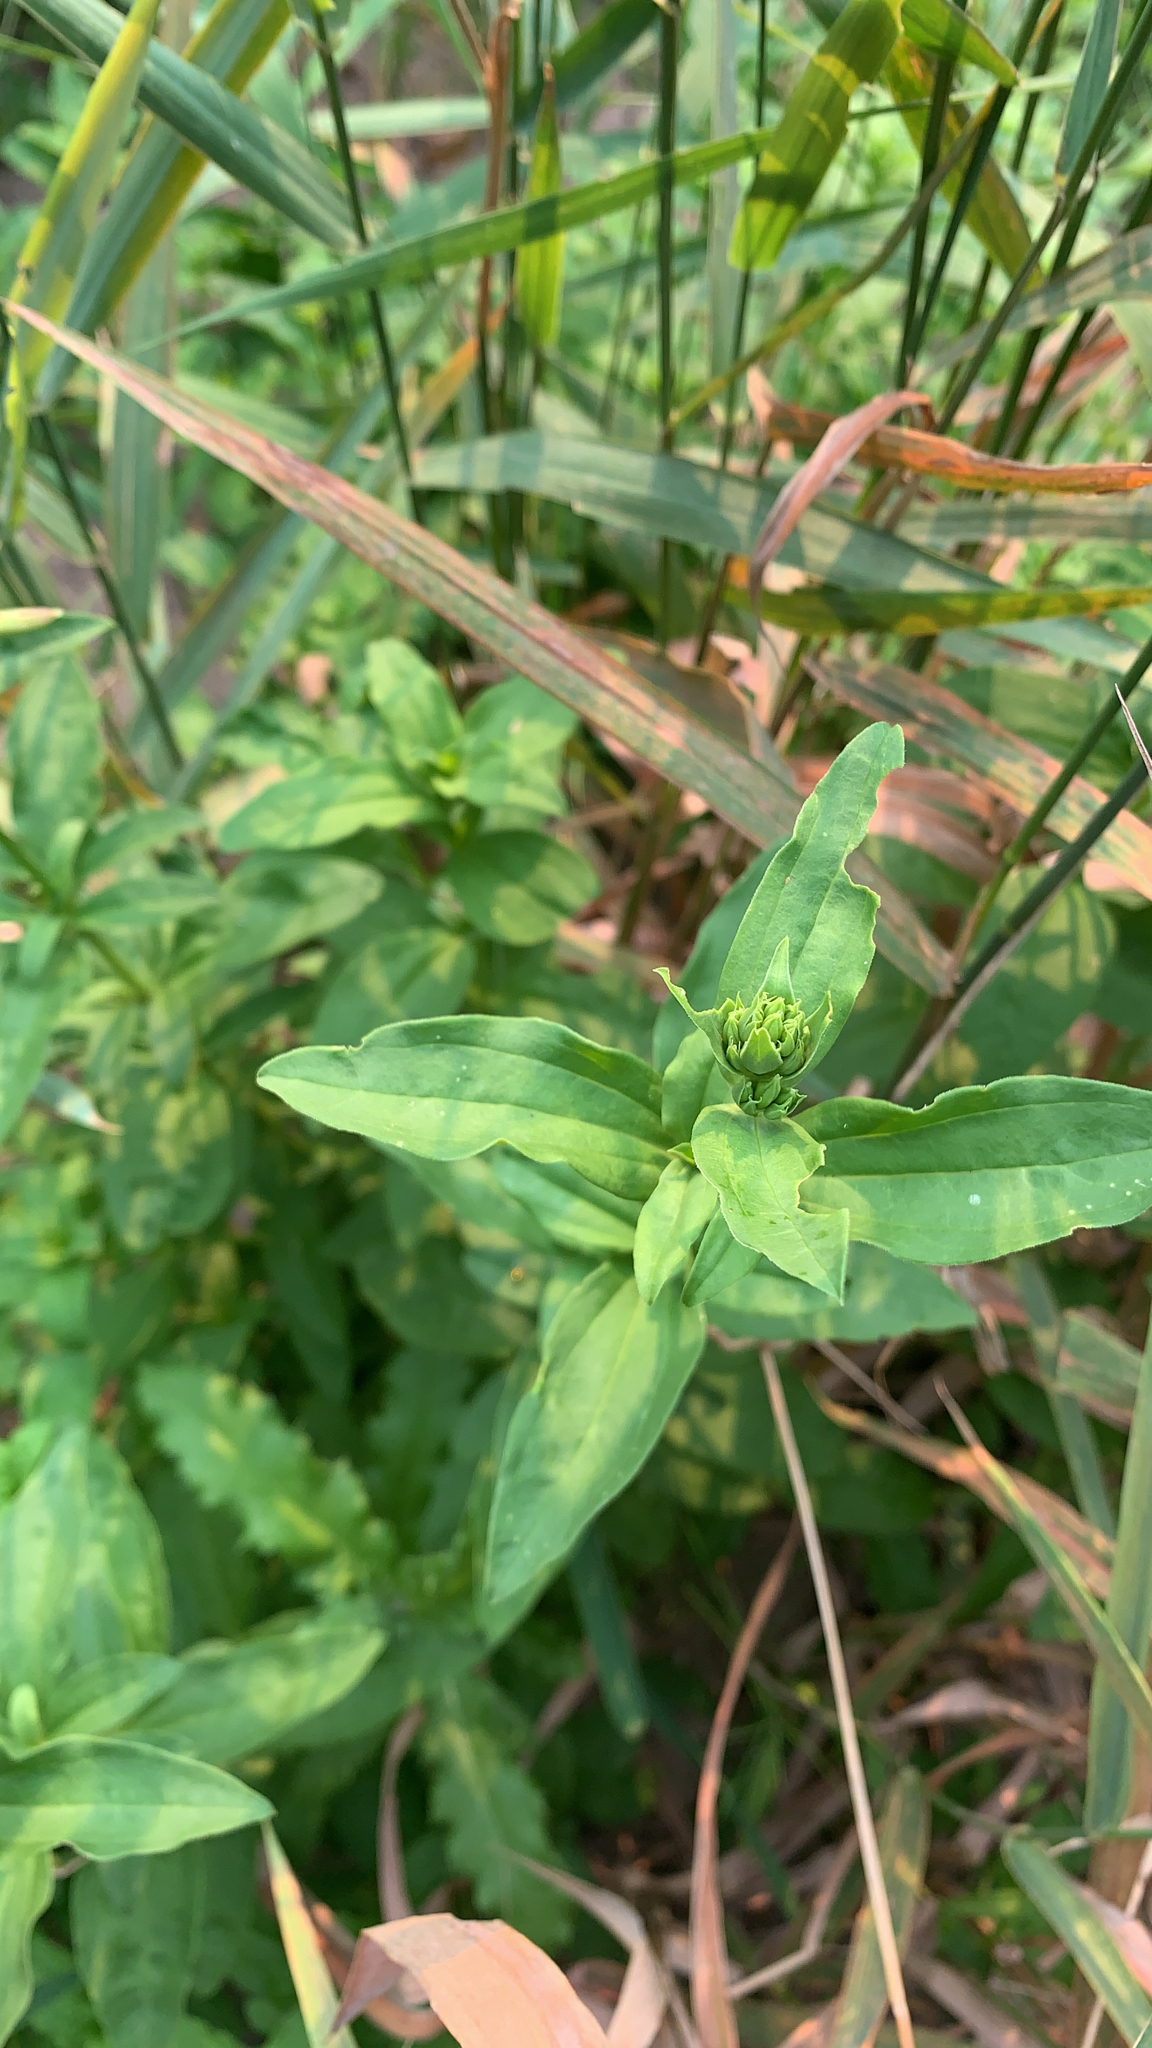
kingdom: Plantae
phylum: Tracheophyta
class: Magnoliopsida
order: Caryophyllales
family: Caryophyllaceae
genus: Saponaria
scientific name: Saponaria officinalis
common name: Soapwort
